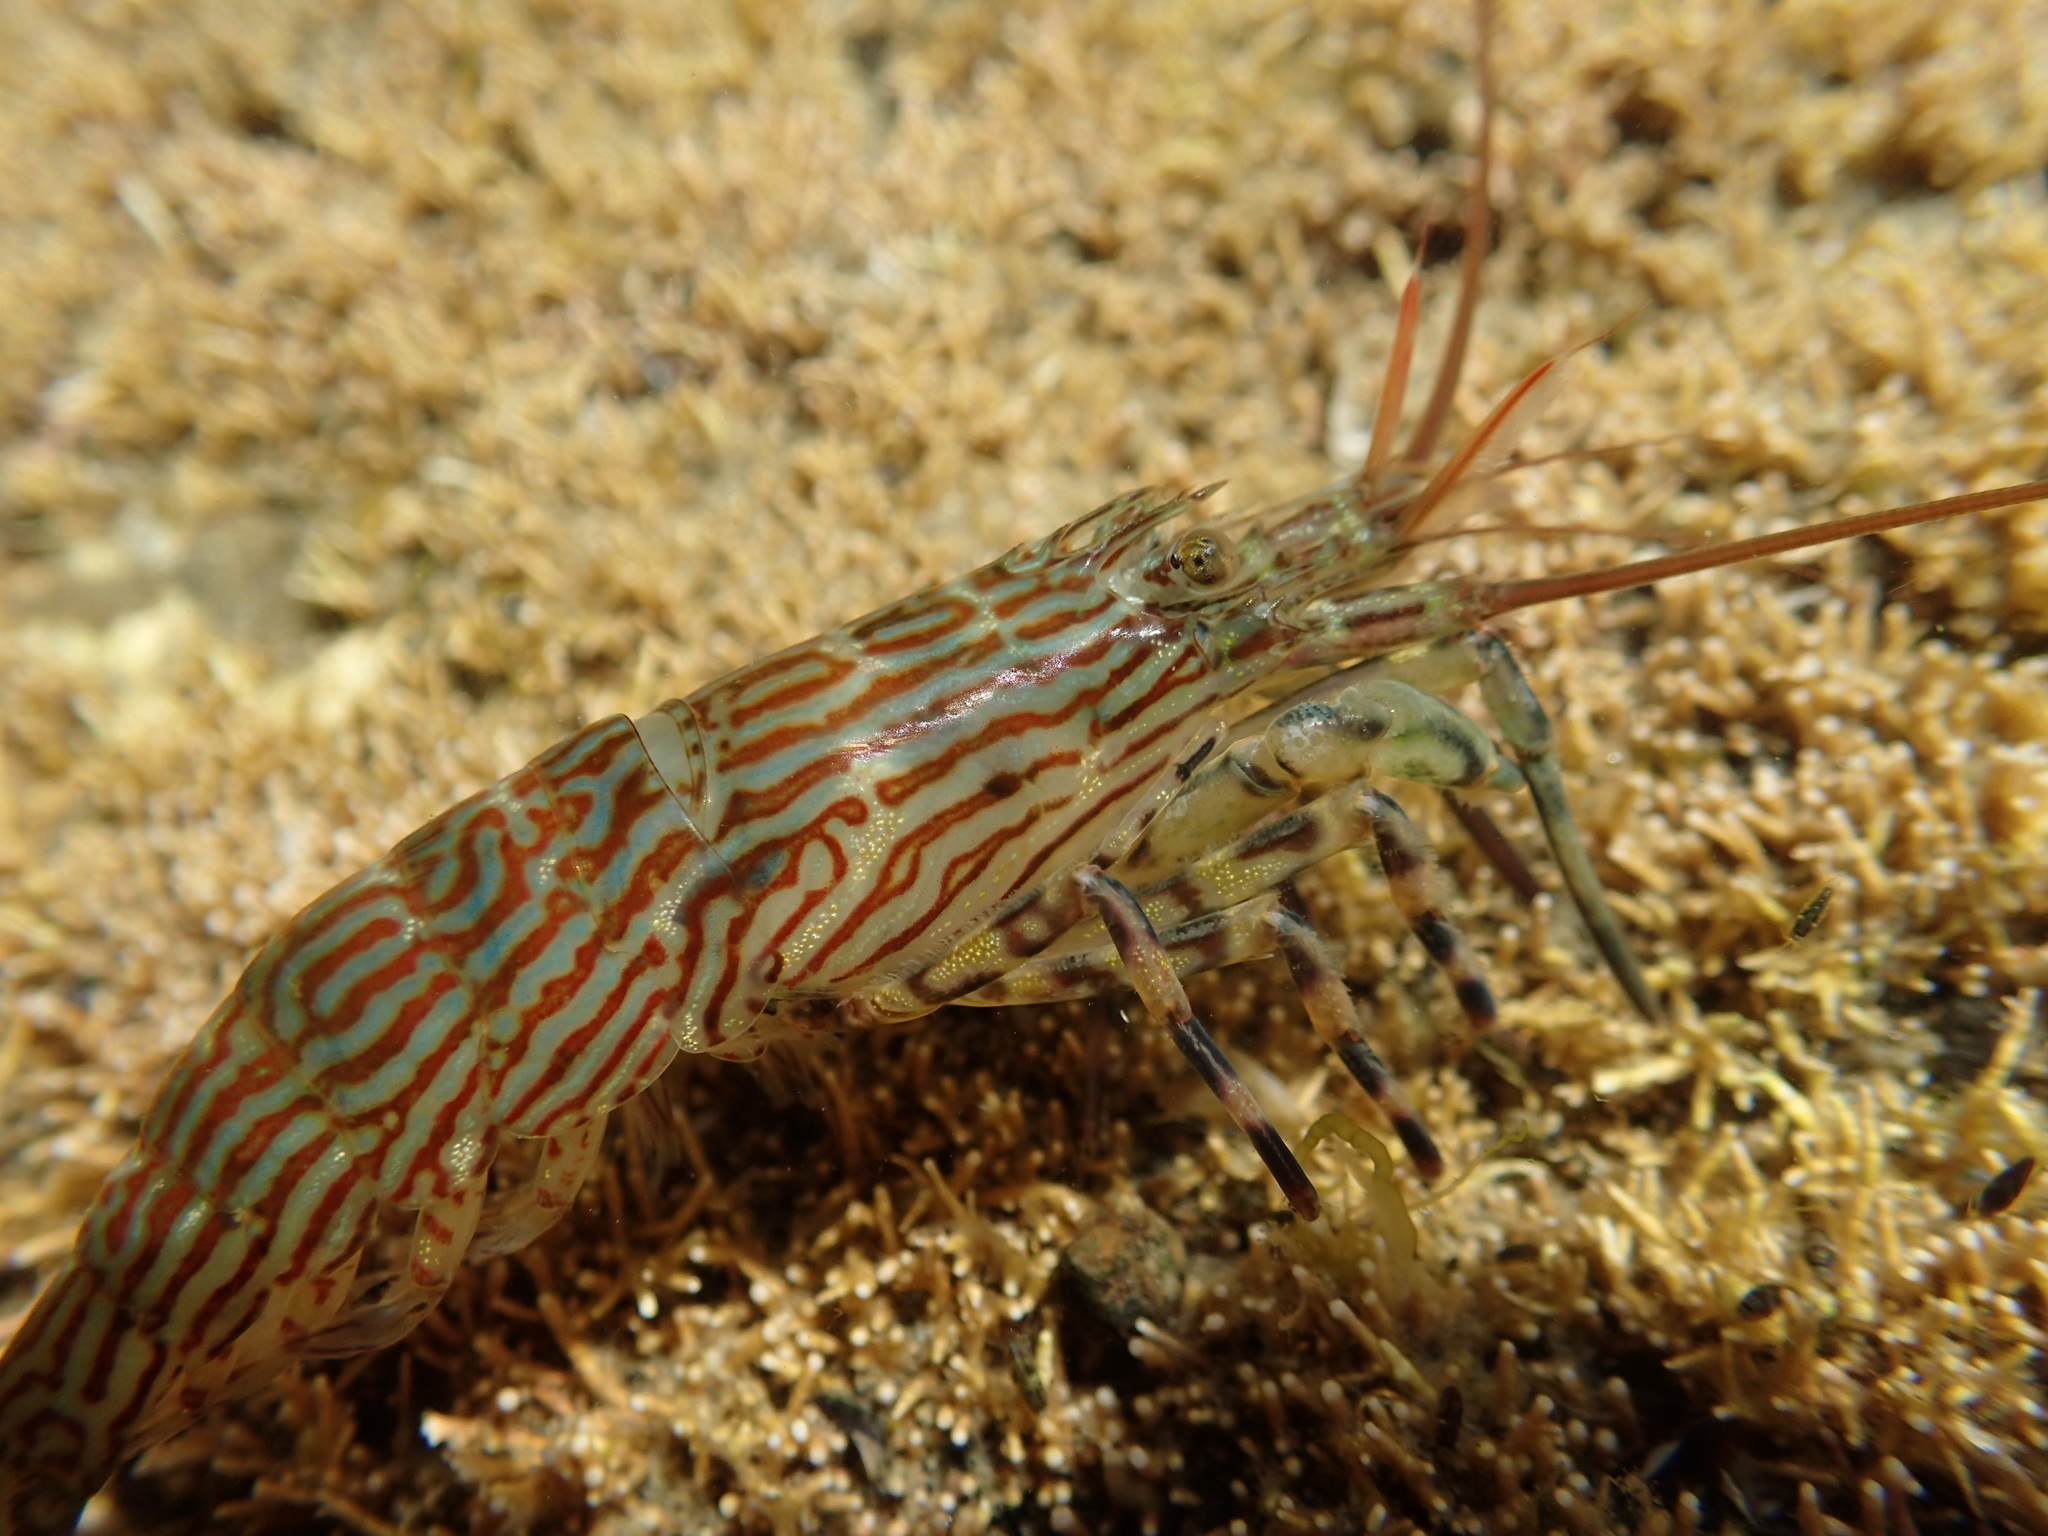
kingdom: Animalia
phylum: Arthropoda
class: Malacostraca
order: Decapoda
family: Hippolytidae
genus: Alope
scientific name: Alope spinifrons
